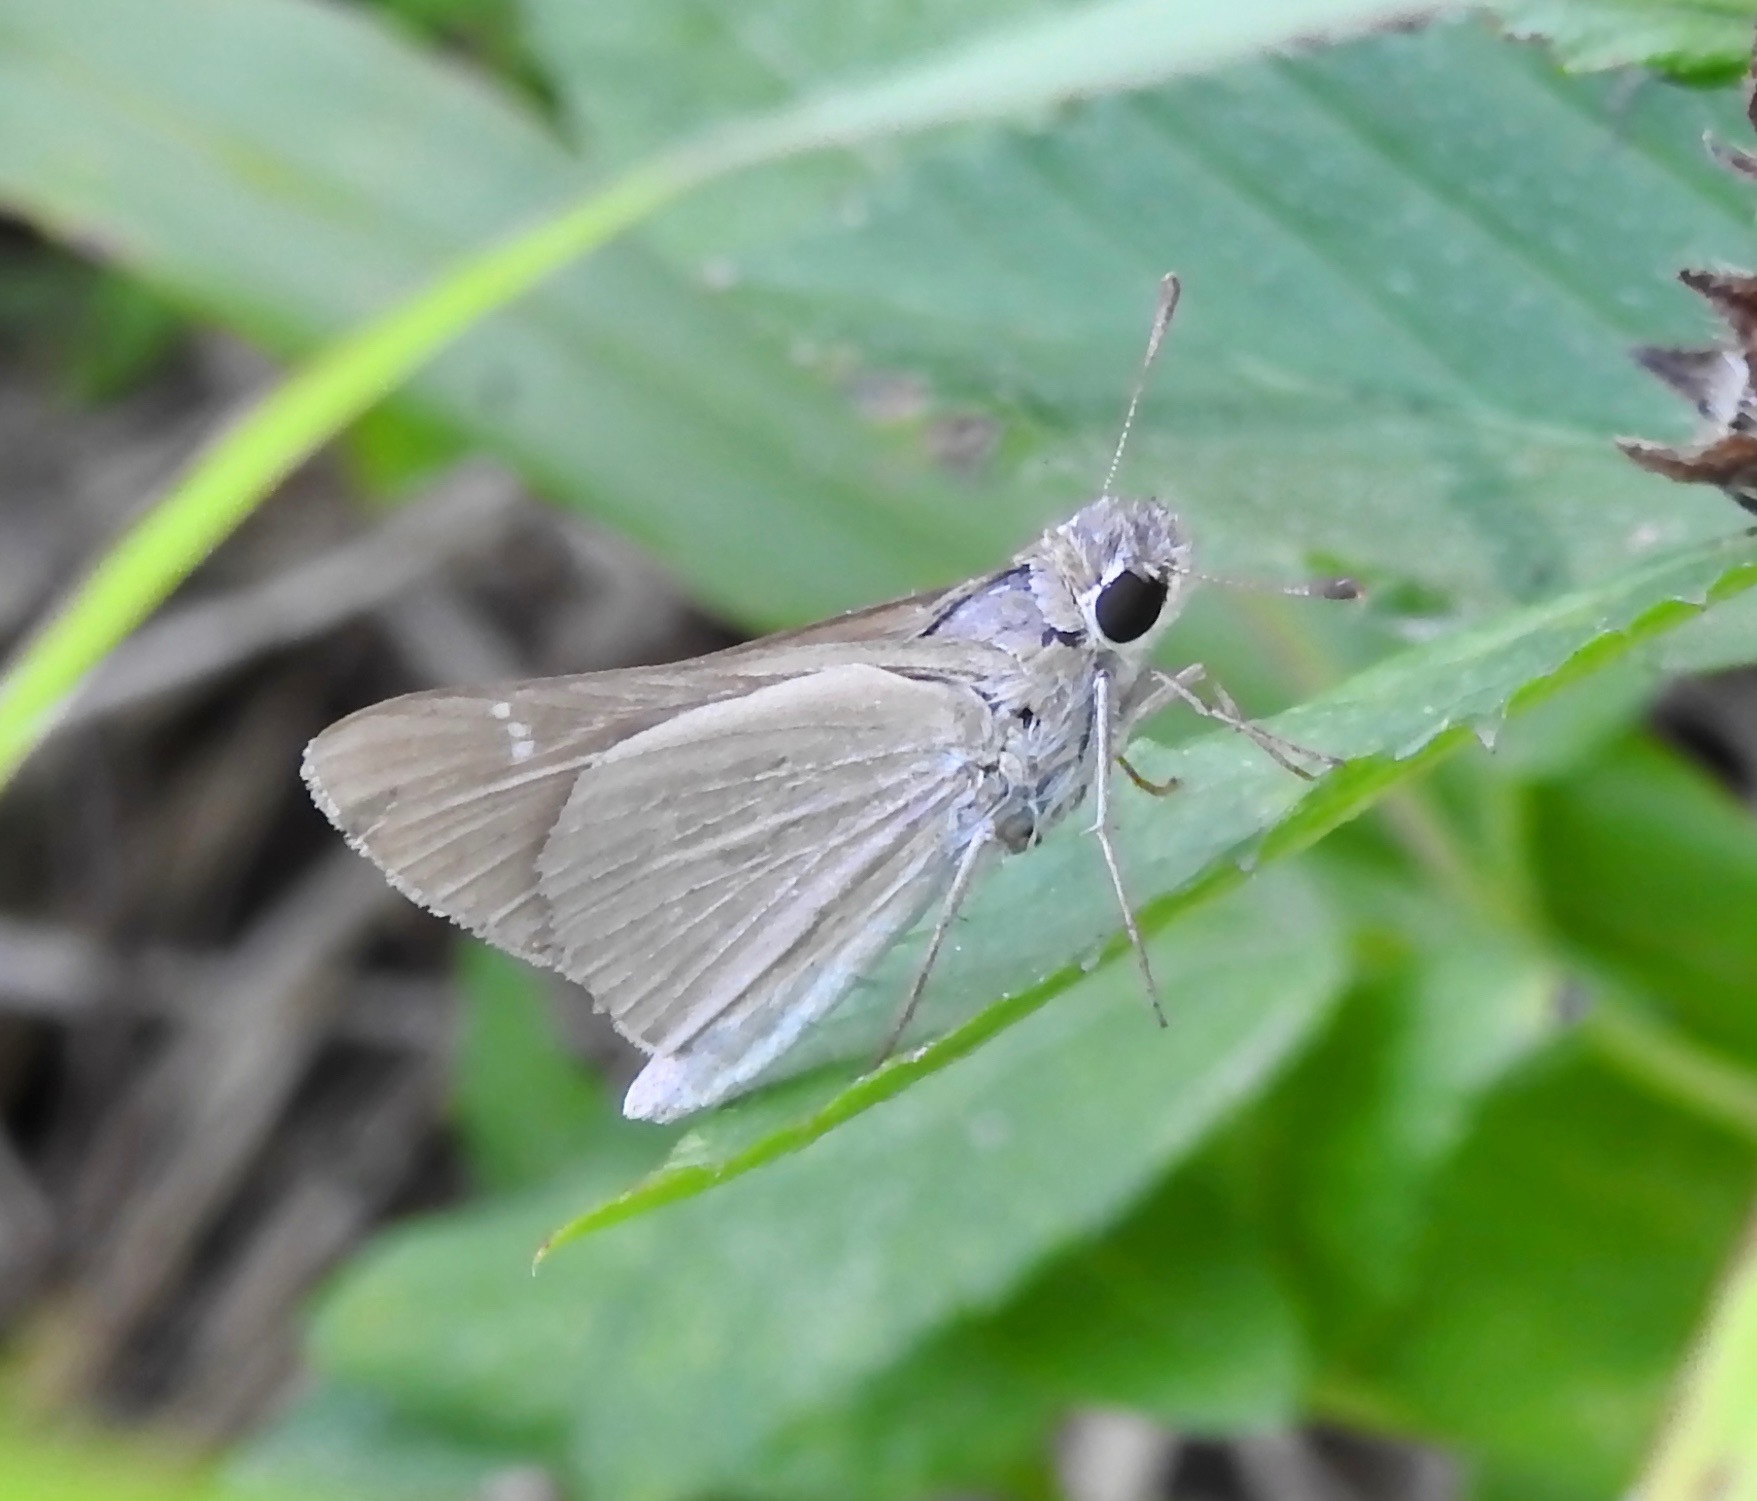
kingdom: Animalia
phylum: Arthropoda
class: Insecta
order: Lepidoptera
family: Hesperiidae
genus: Lerodea
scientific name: Lerodea eufala
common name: Eufala skipper
